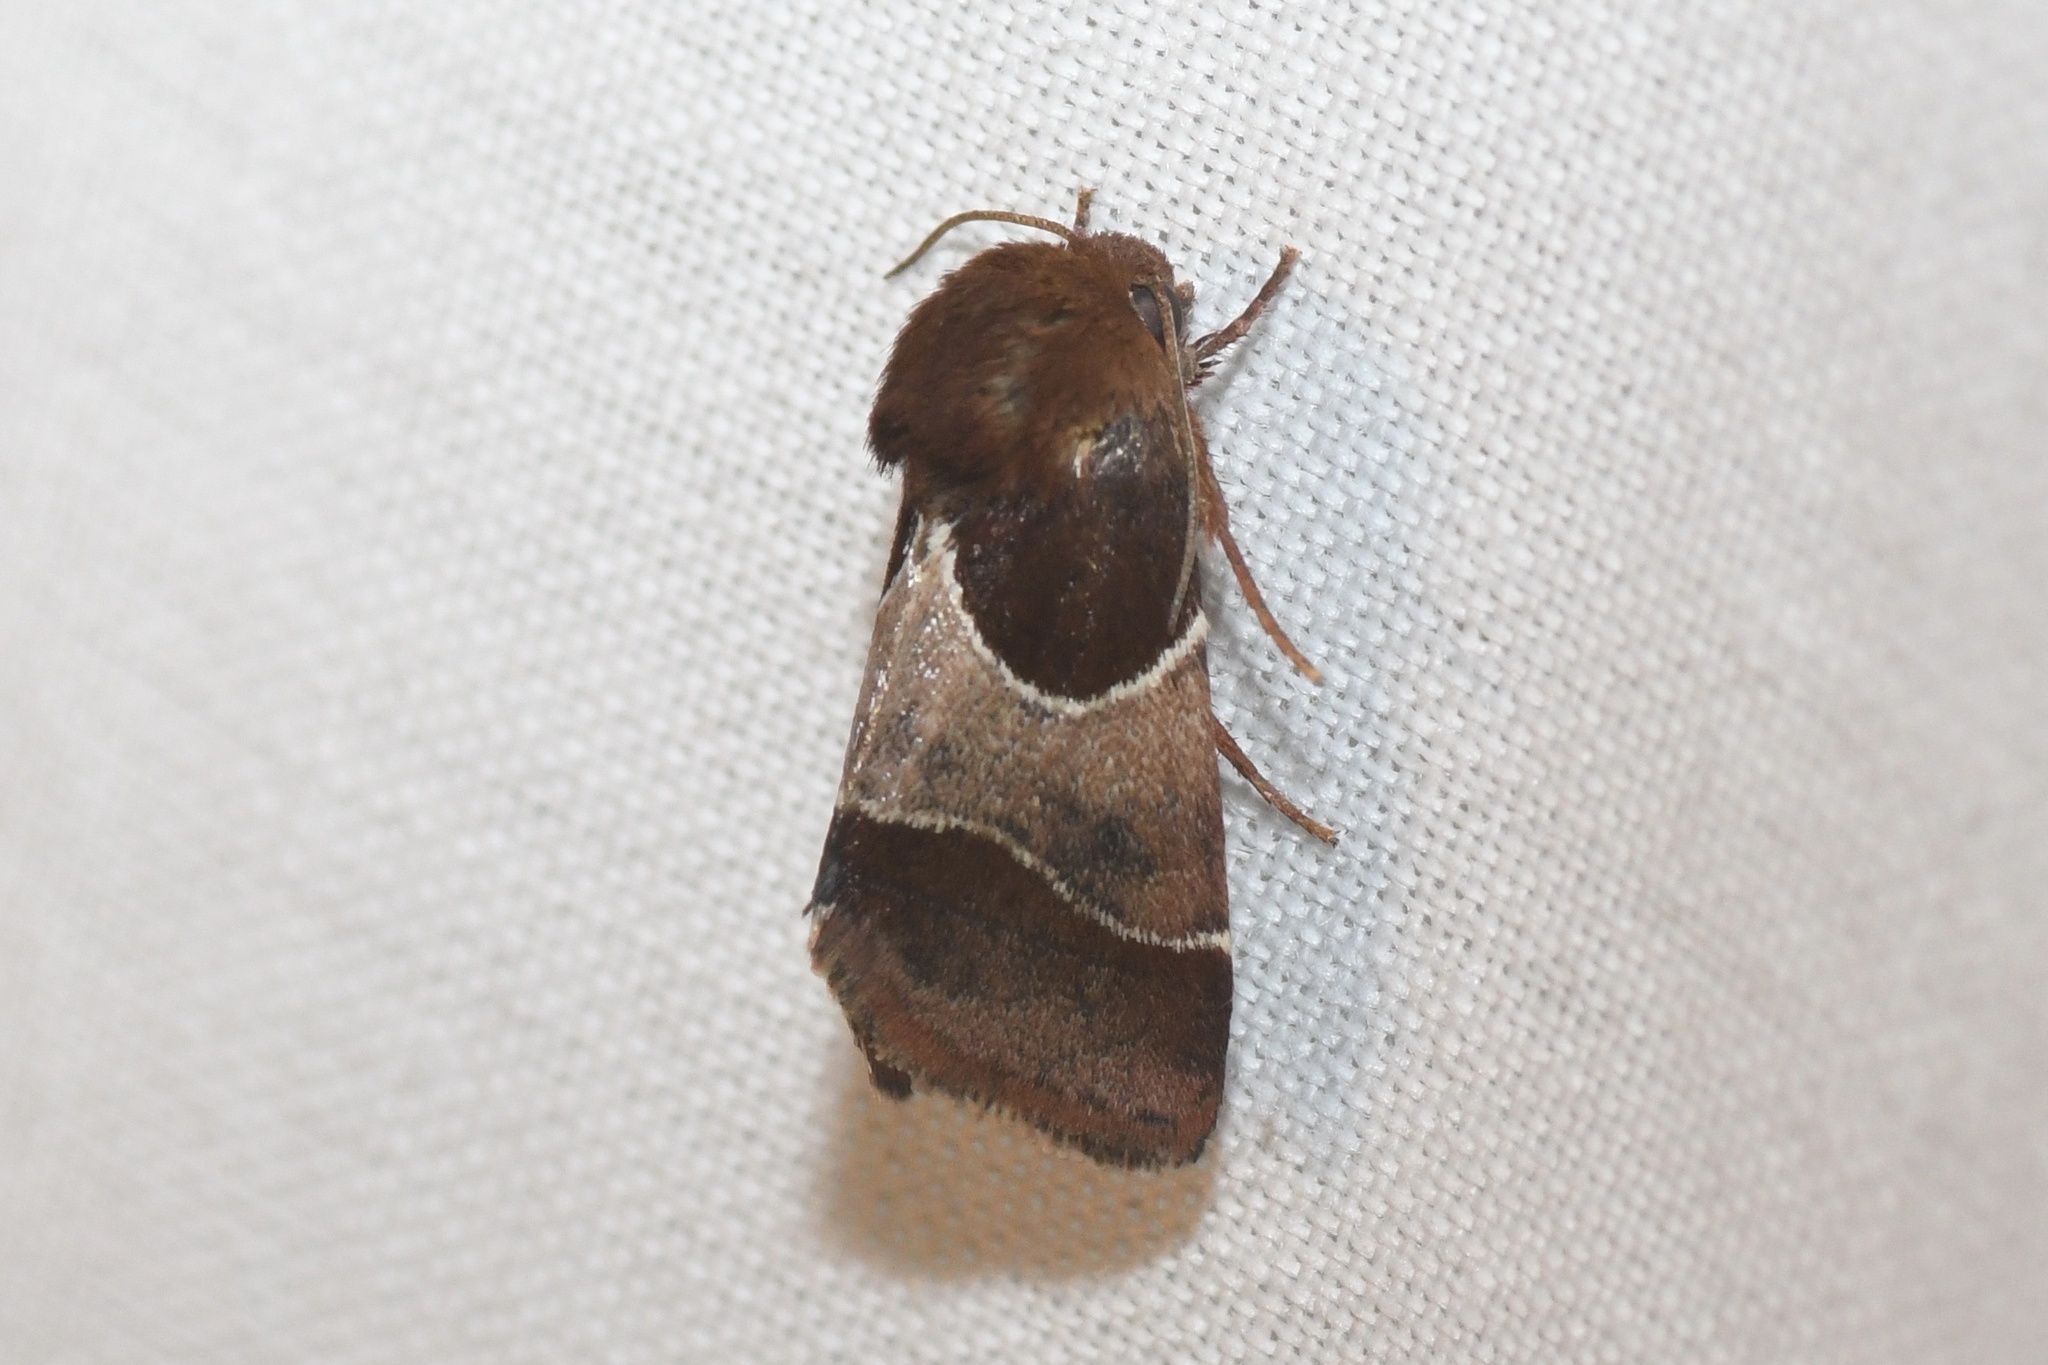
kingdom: Animalia
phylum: Arthropoda
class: Insecta
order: Lepidoptera
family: Noctuidae
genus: Schinia
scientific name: Schinia arcigera
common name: Arcigera flower moth
